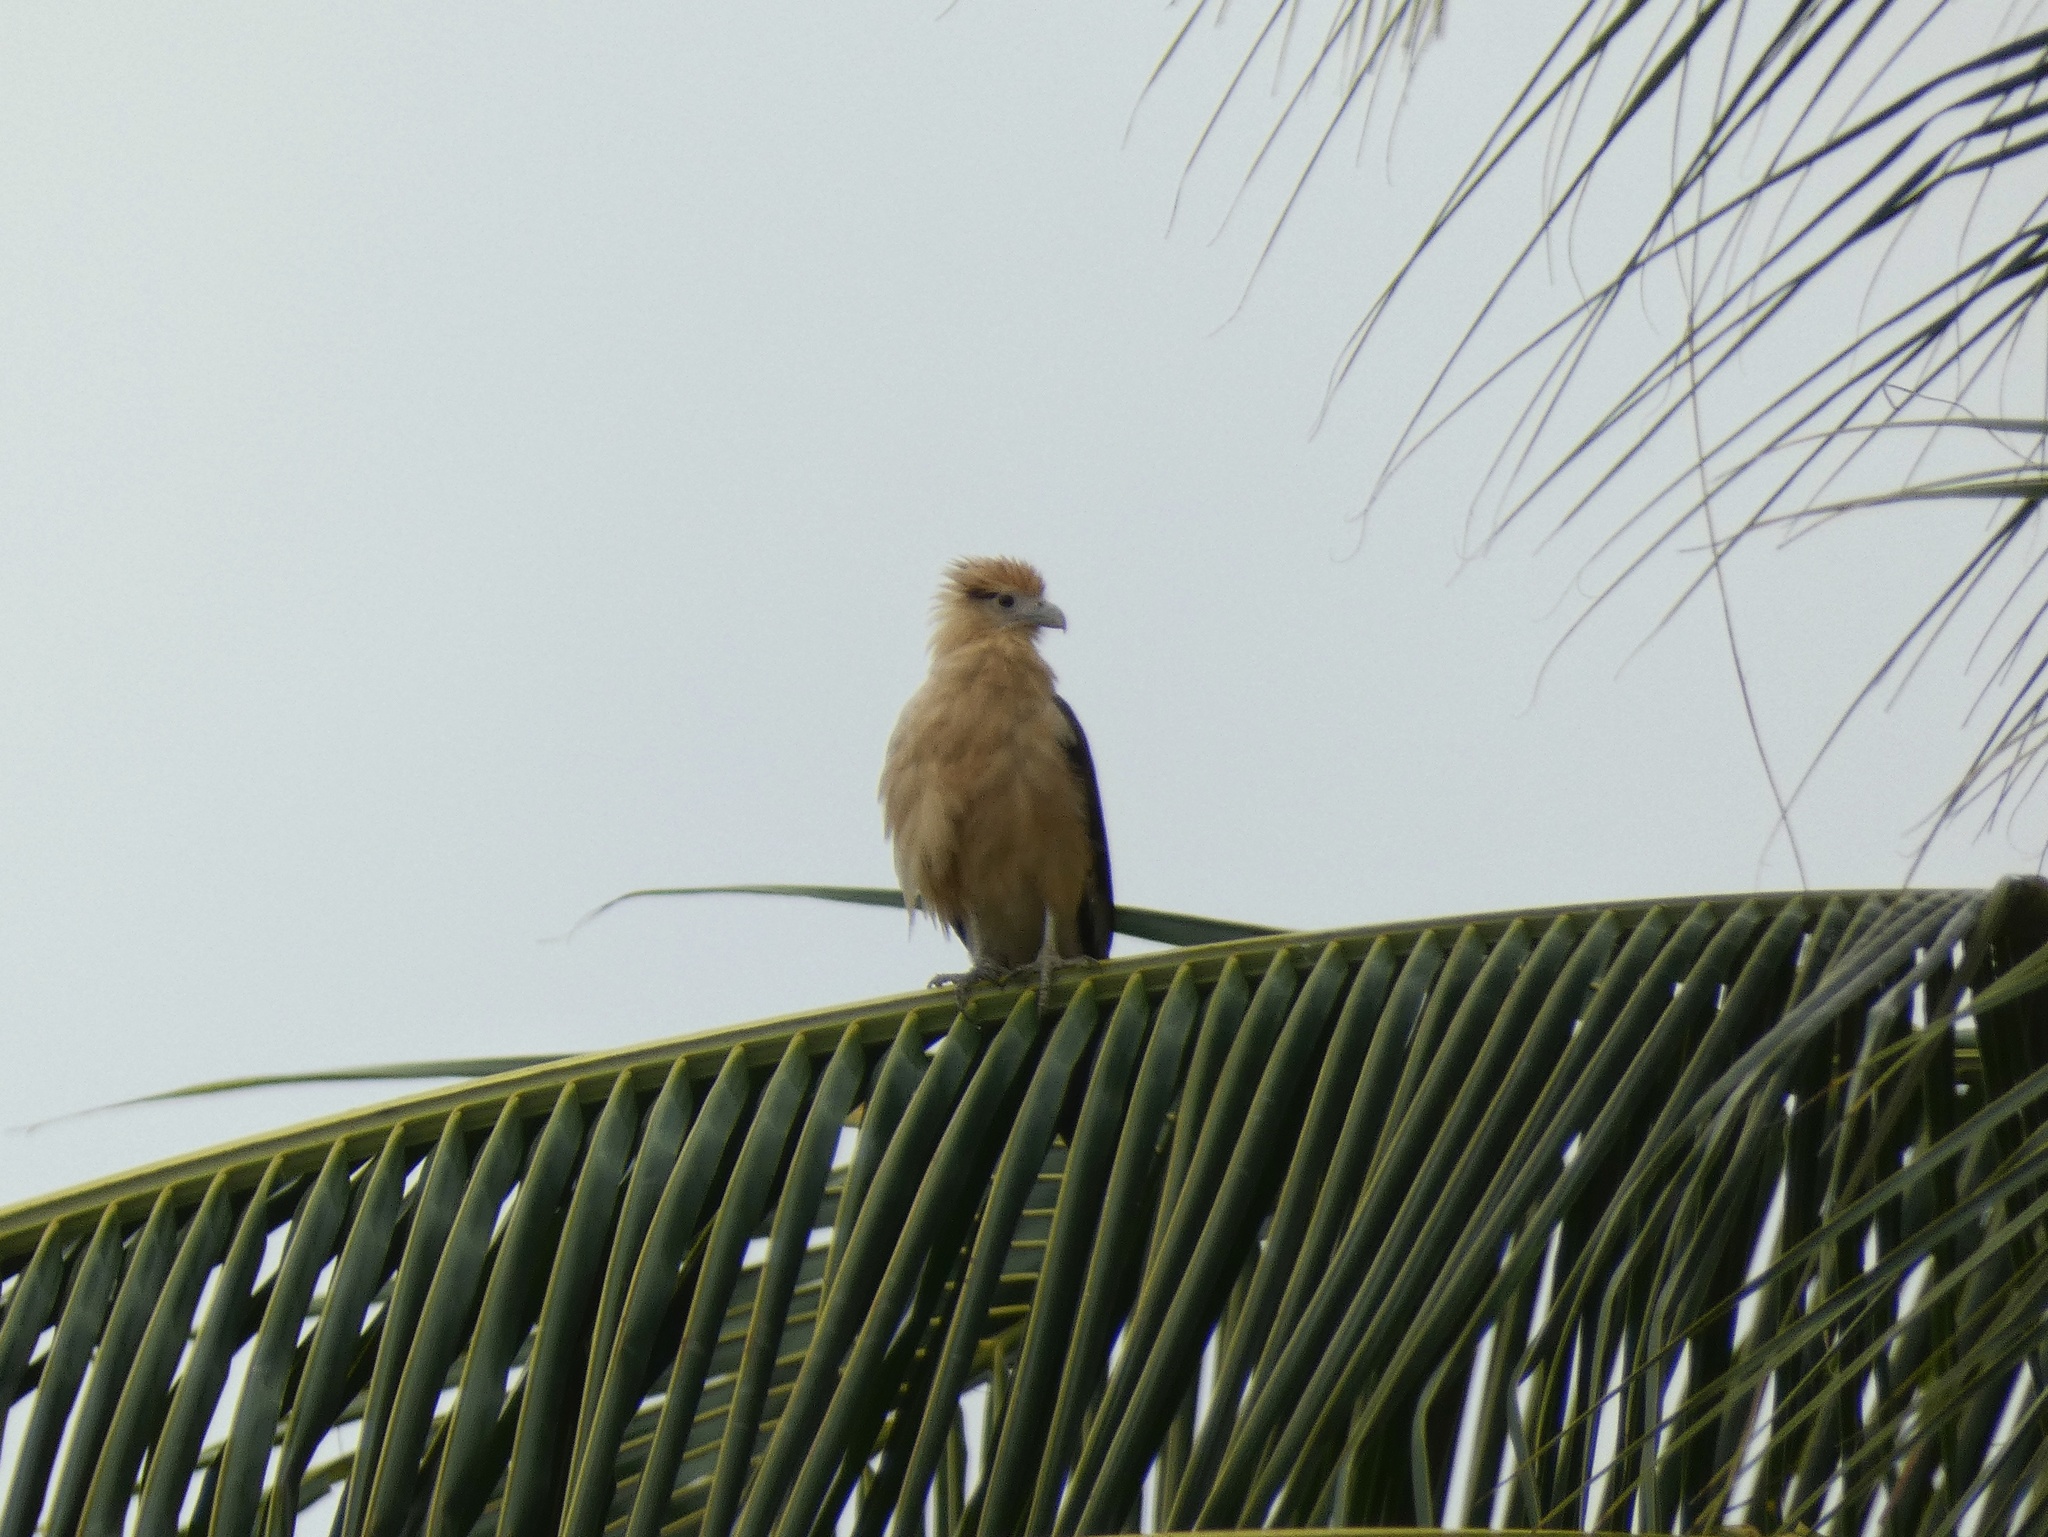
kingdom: Animalia
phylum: Chordata
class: Aves
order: Falconiformes
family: Falconidae
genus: Daptrius
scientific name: Daptrius
